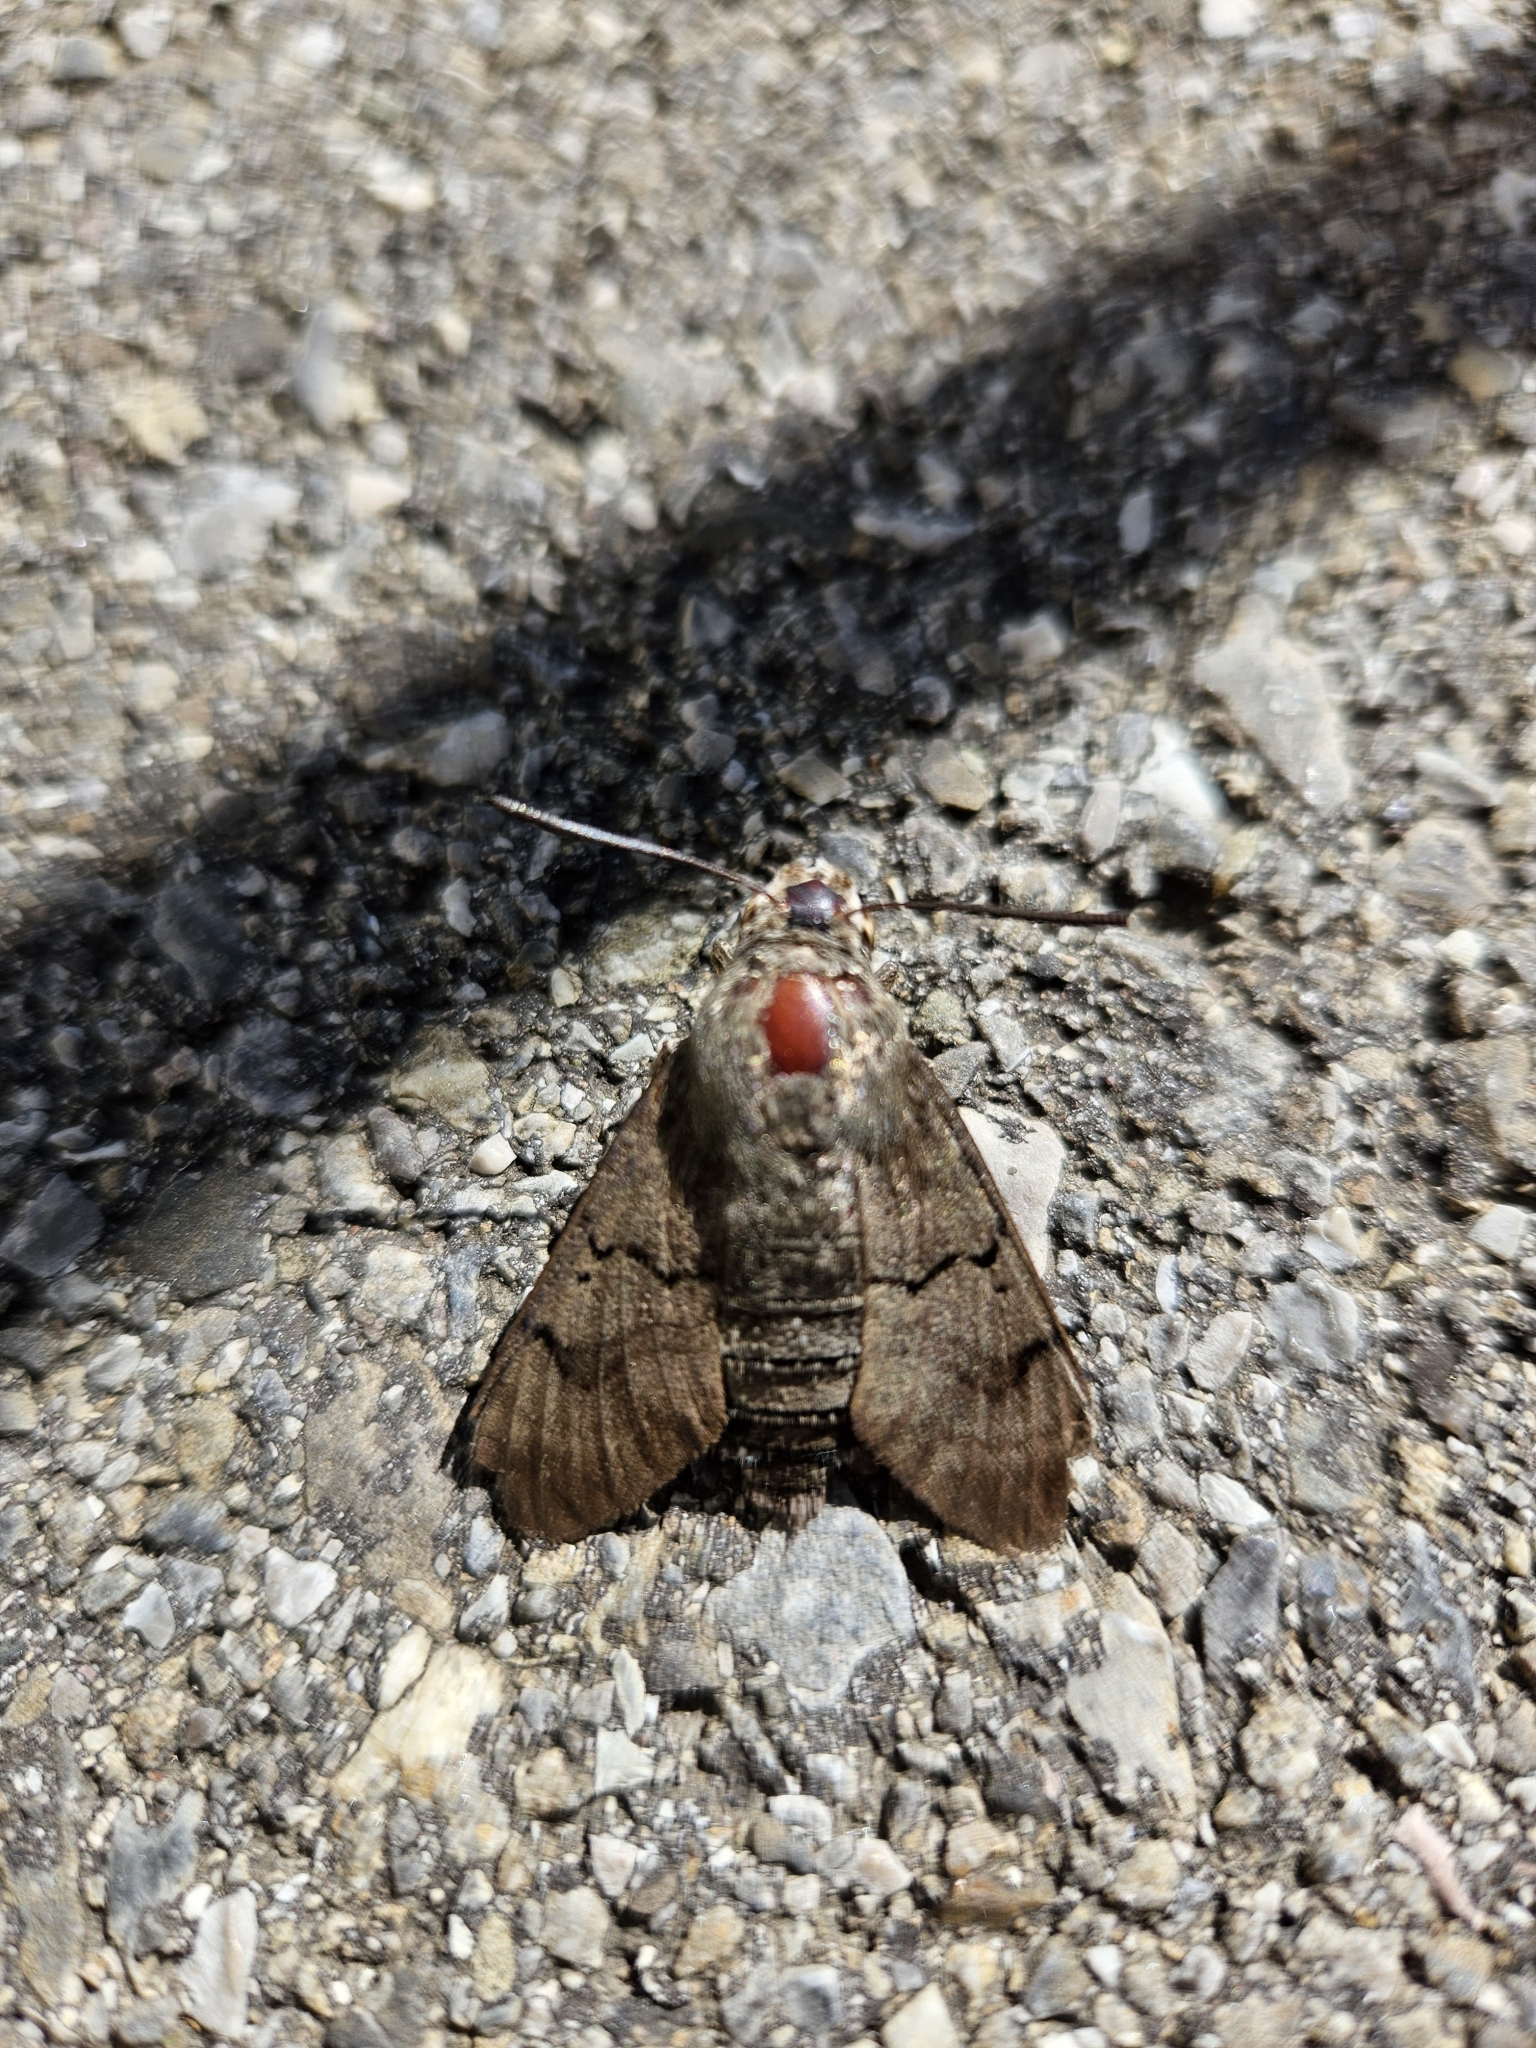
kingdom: Animalia
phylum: Arthropoda
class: Insecta
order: Lepidoptera
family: Sphingidae
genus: Macroglossum
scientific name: Macroglossum stellatarum
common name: Humming-bird hawk-moth
